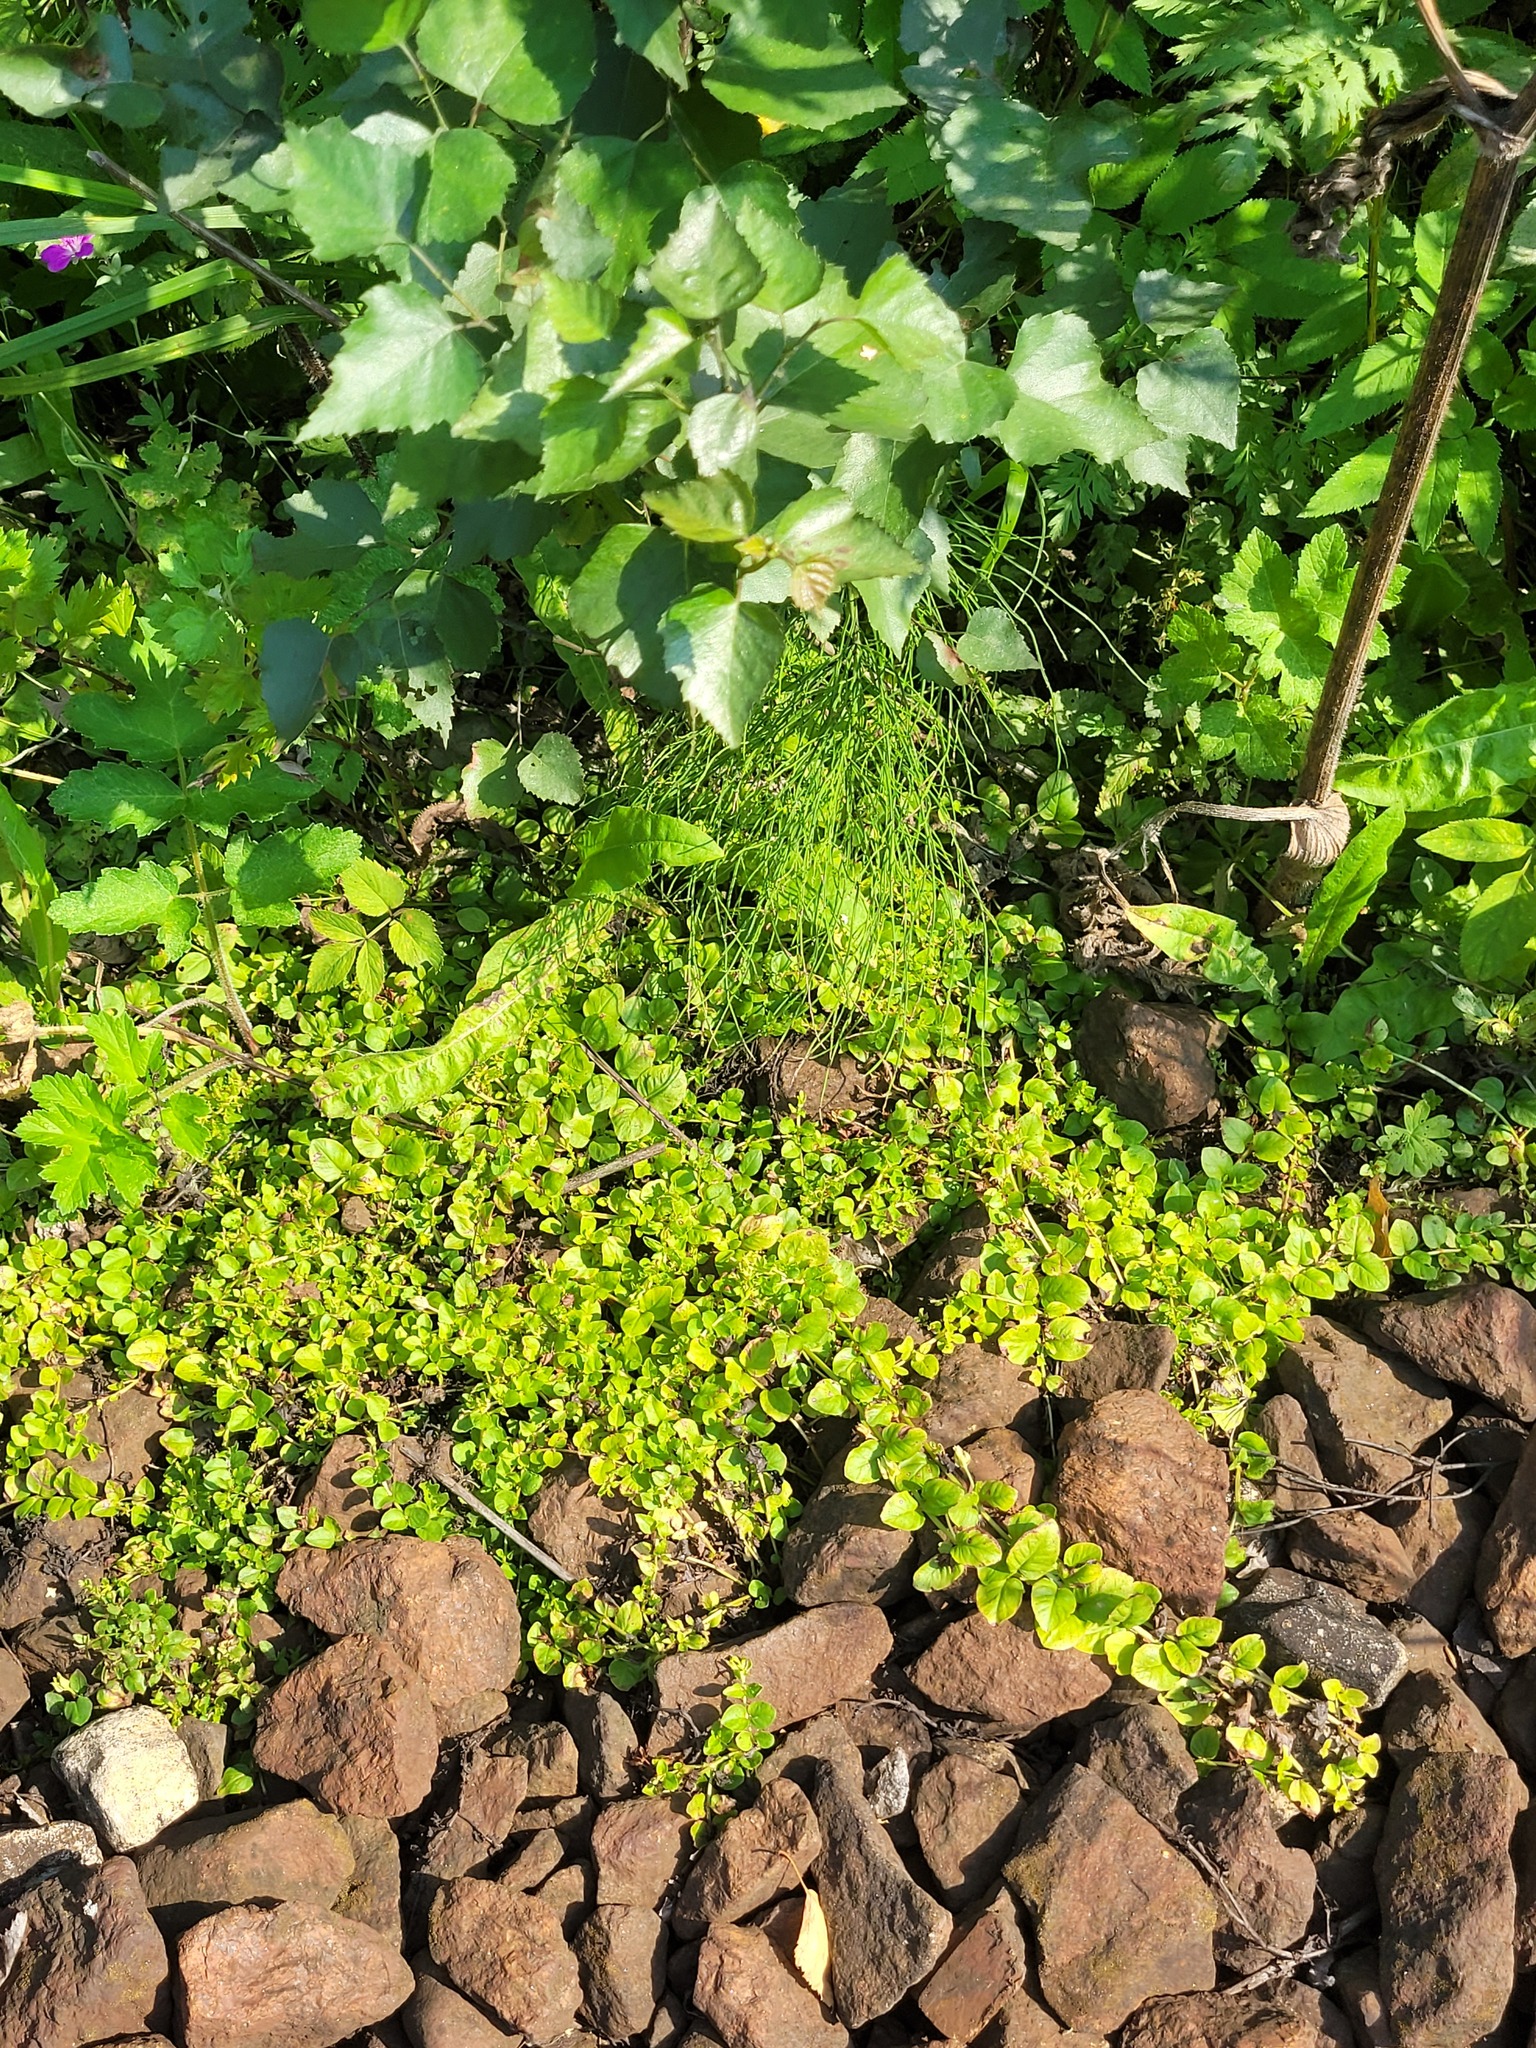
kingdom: Plantae
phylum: Tracheophyta
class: Magnoliopsida
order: Ericales
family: Primulaceae
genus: Lysimachia
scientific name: Lysimachia nummularia
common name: Moneywort
